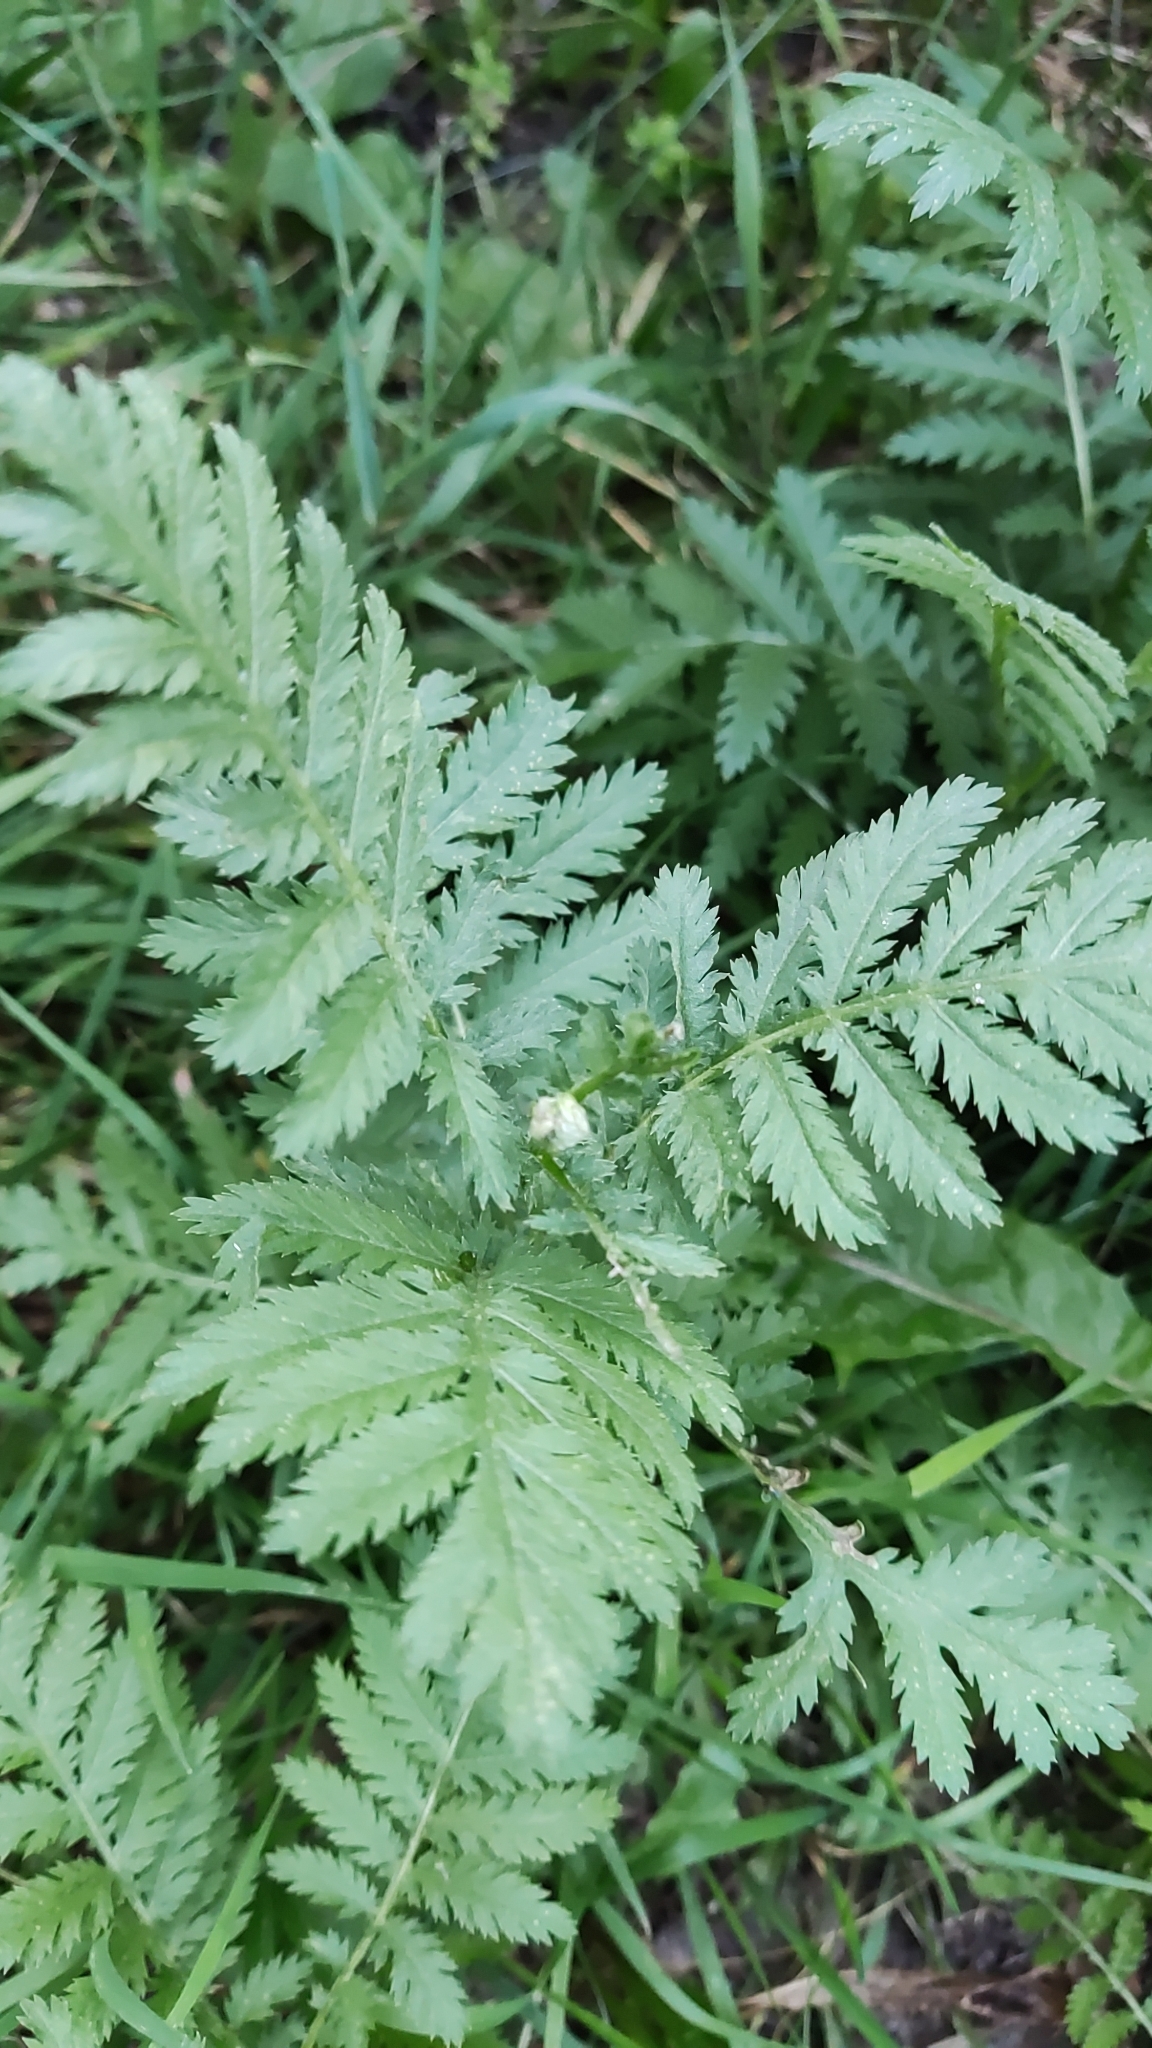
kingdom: Plantae
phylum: Tracheophyta
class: Magnoliopsida
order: Asterales
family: Asteraceae
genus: Tanacetum
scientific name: Tanacetum vulgare
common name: Common tansy
